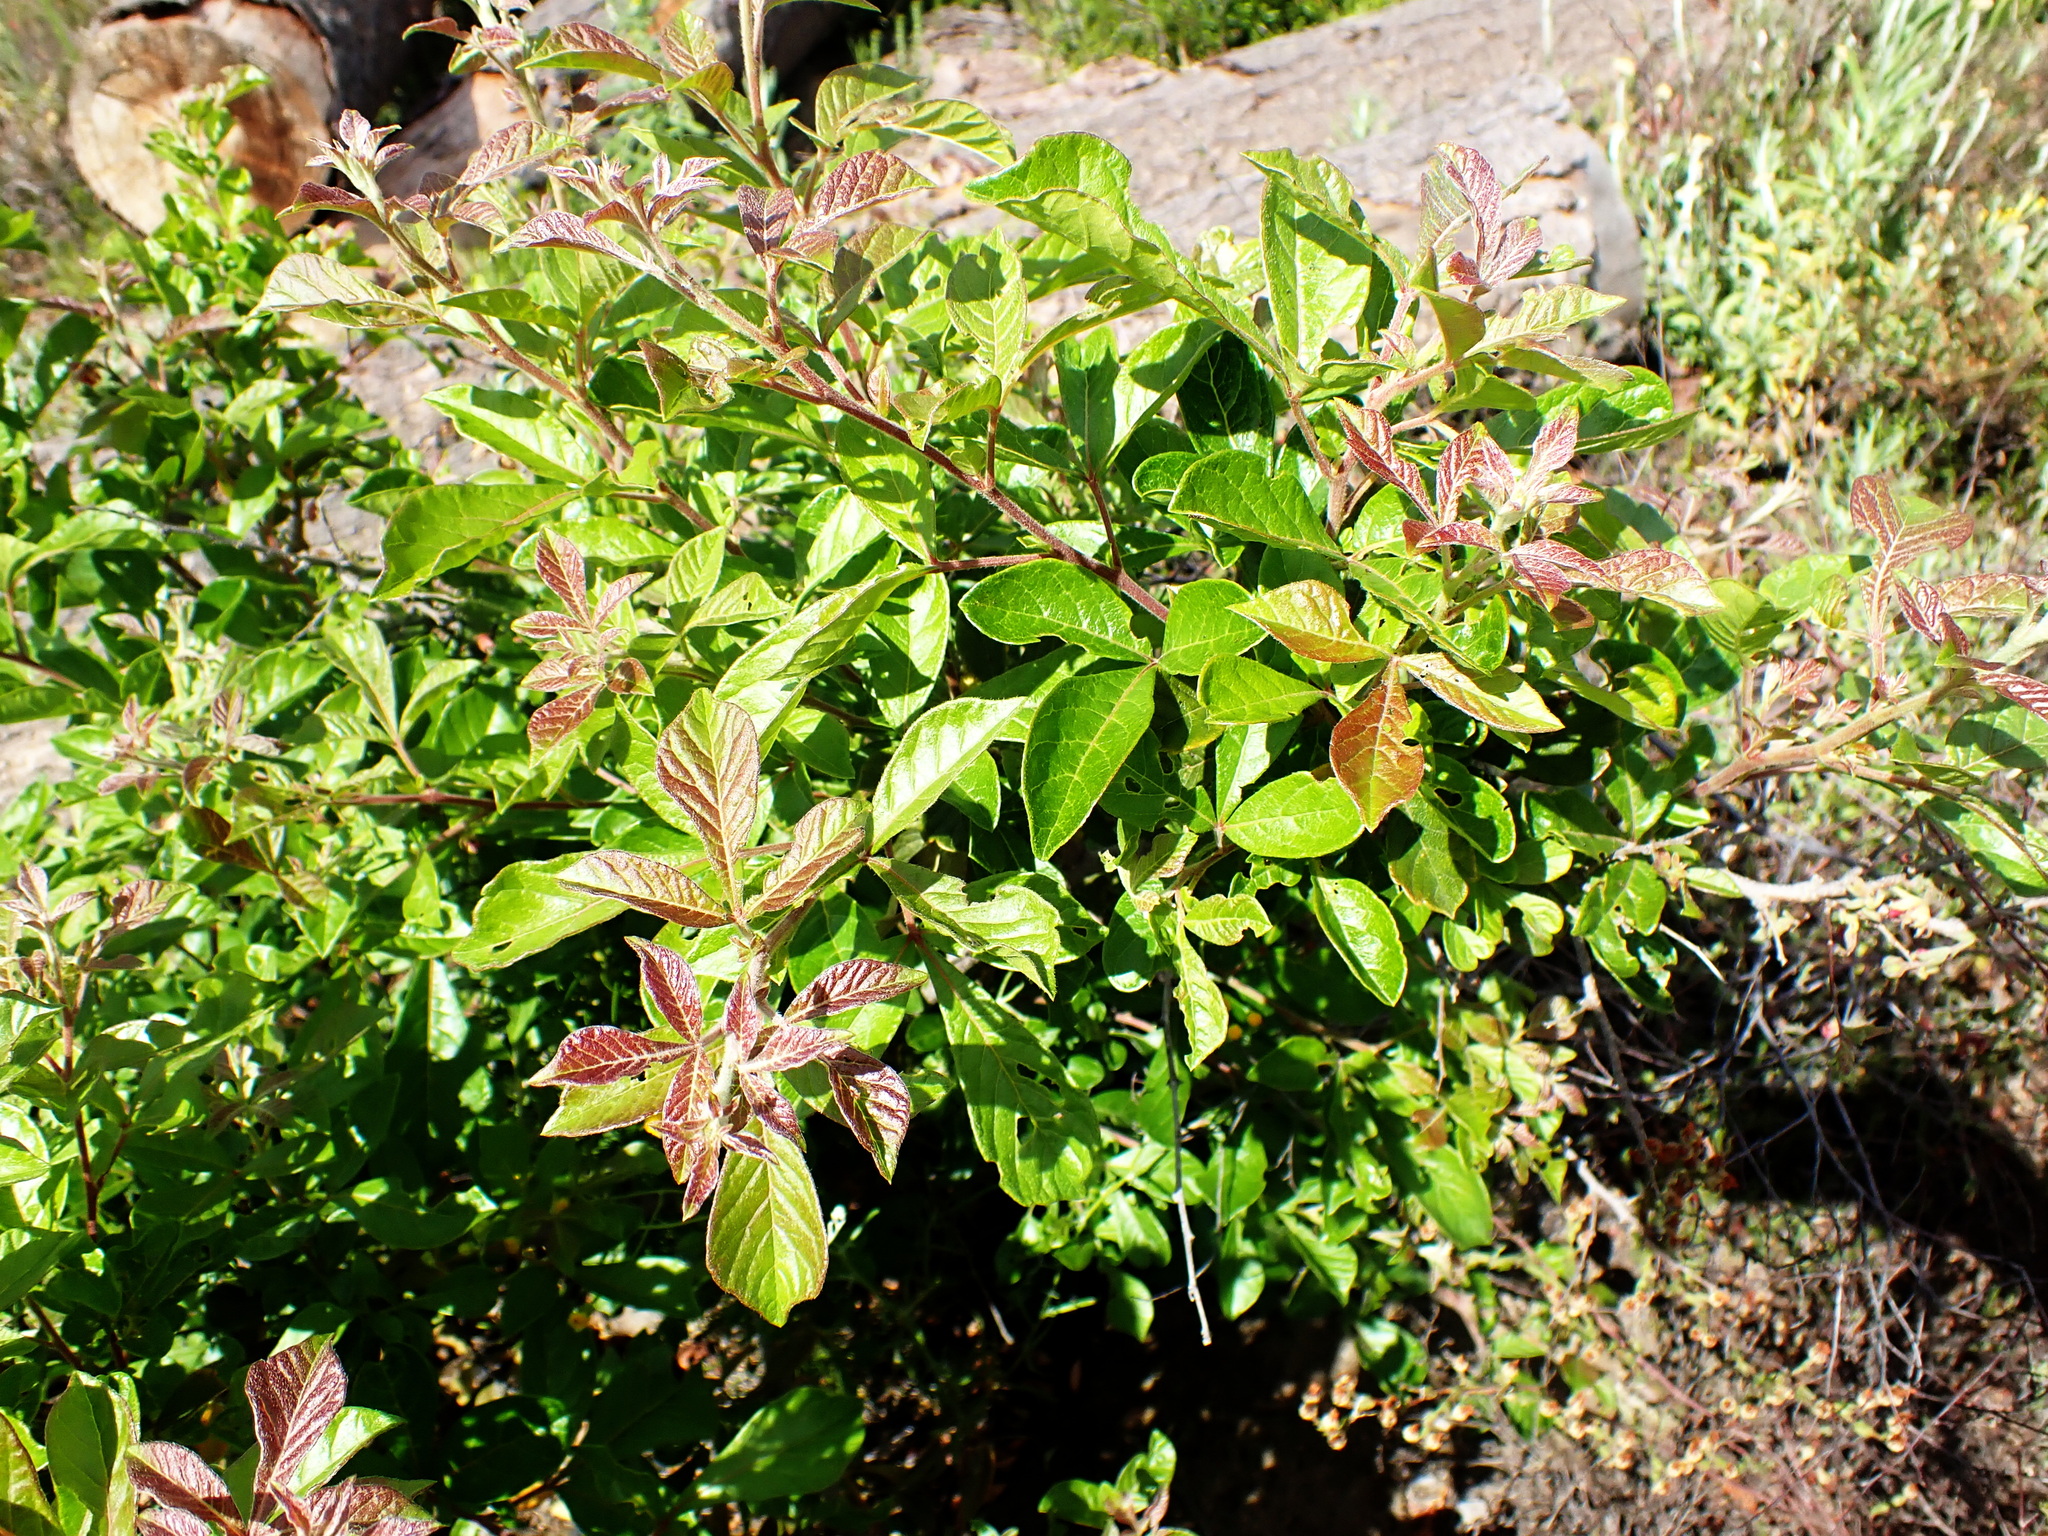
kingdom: Plantae
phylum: Tracheophyta
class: Magnoliopsida
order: Sapindales
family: Anacardiaceae
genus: Searsia
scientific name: Searsia pyroides
